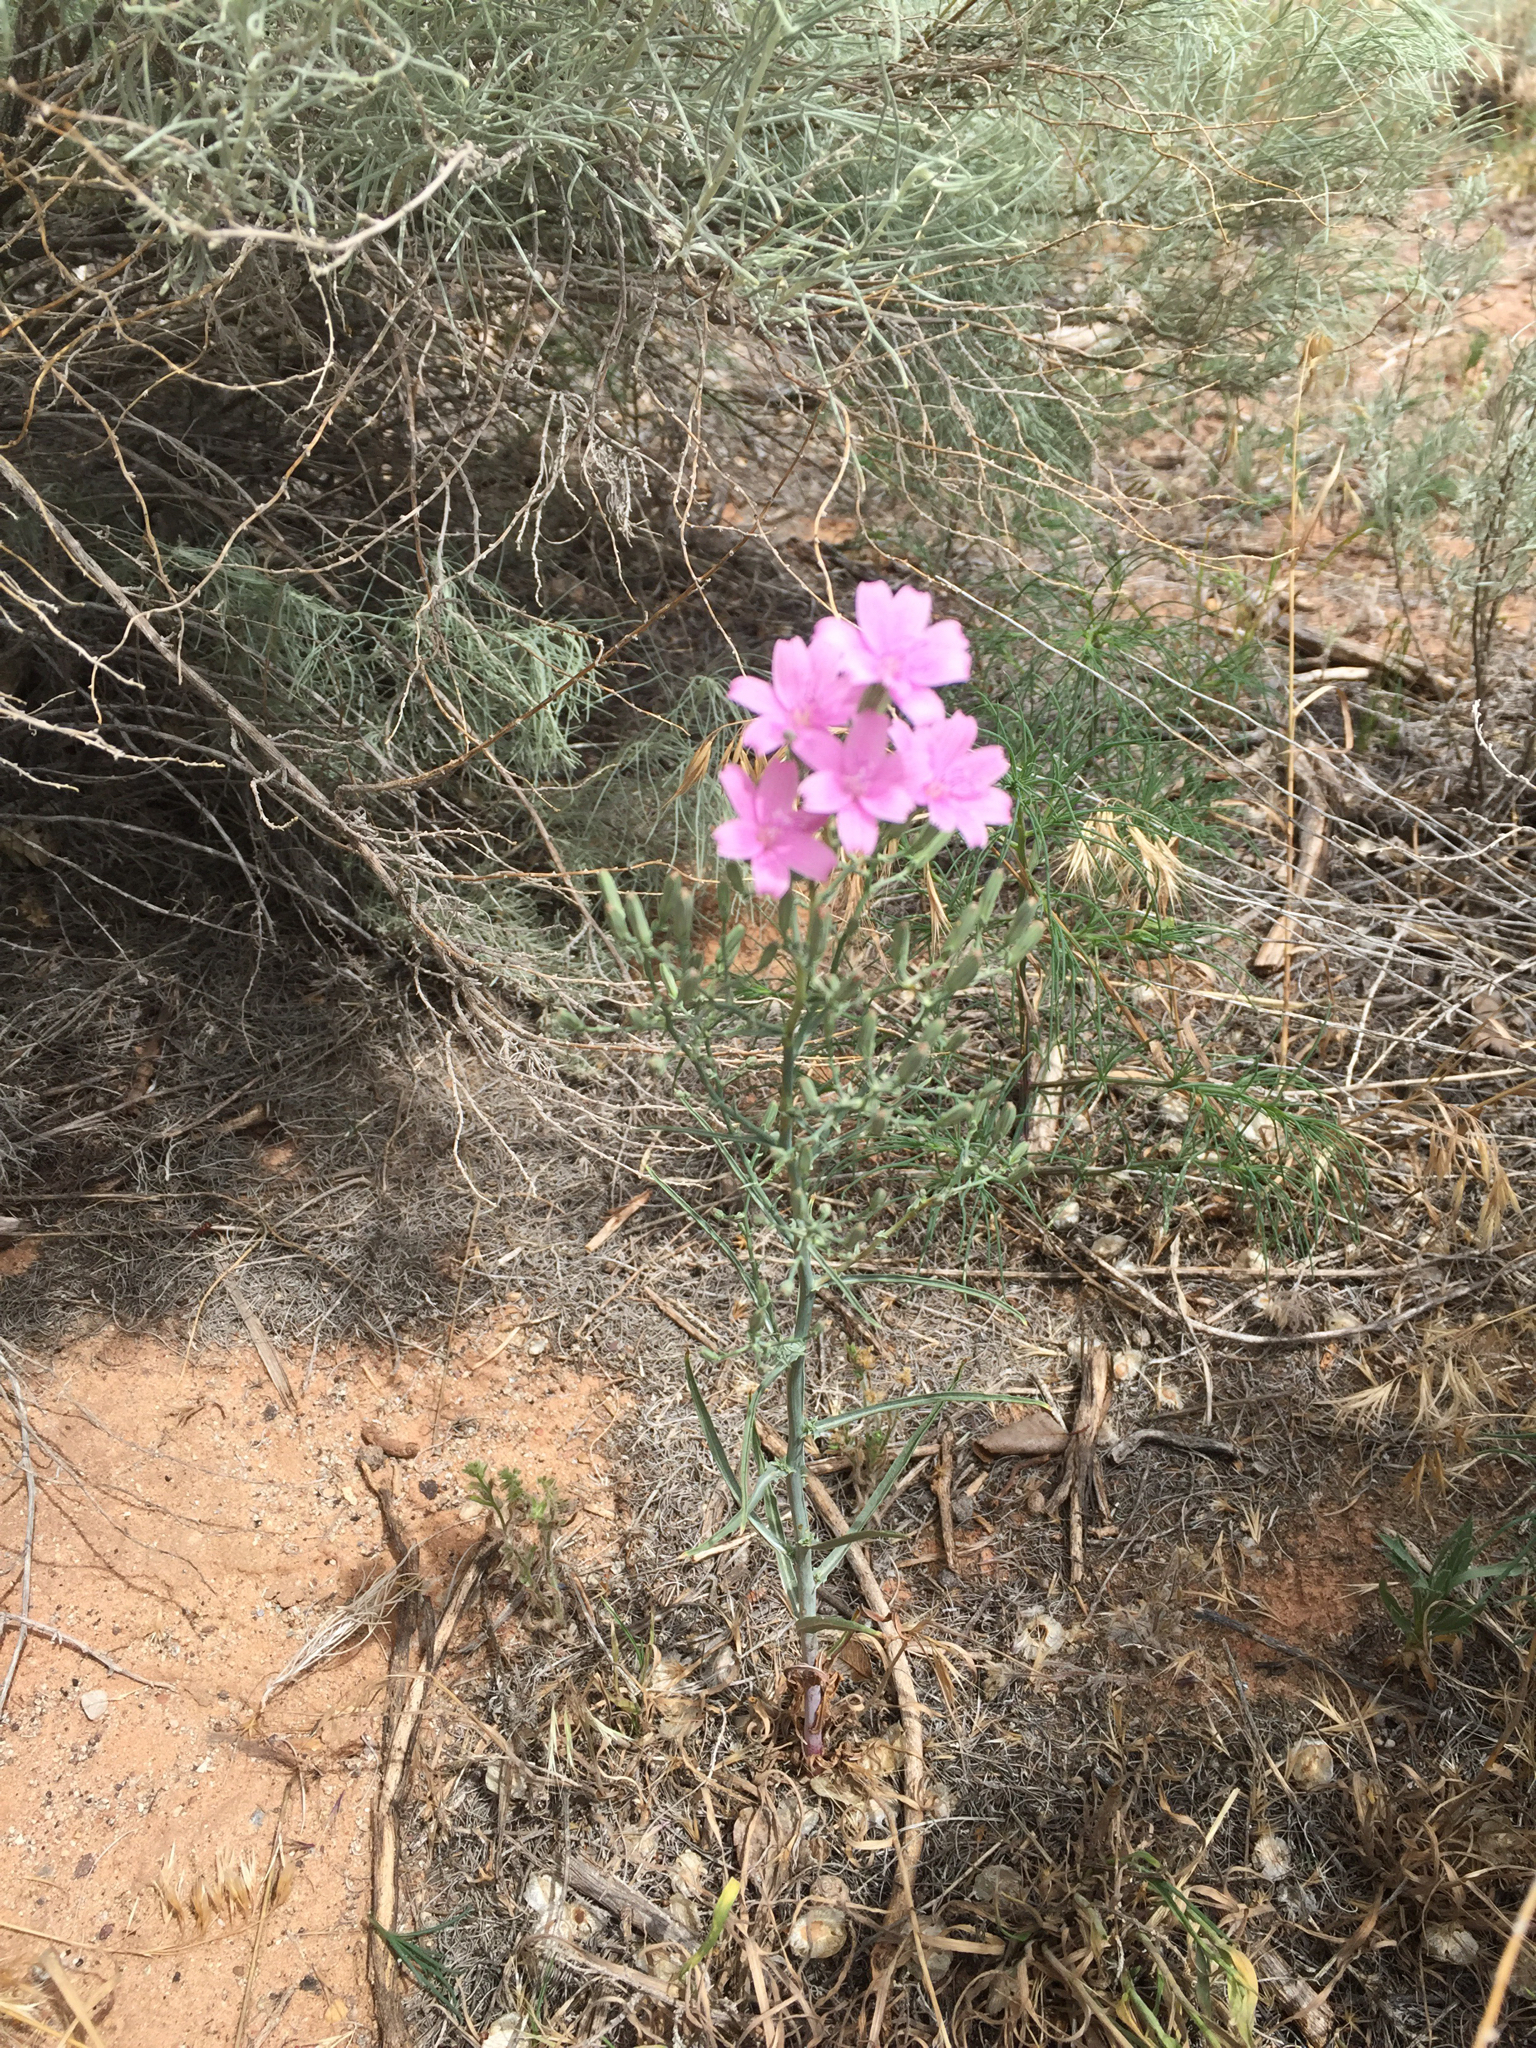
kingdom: Plantae
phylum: Tracheophyta
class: Magnoliopsida
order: Asterales
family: Asteraceae
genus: Stephanomeria
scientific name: Stephanomeria exigua
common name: Small wirelettuce
